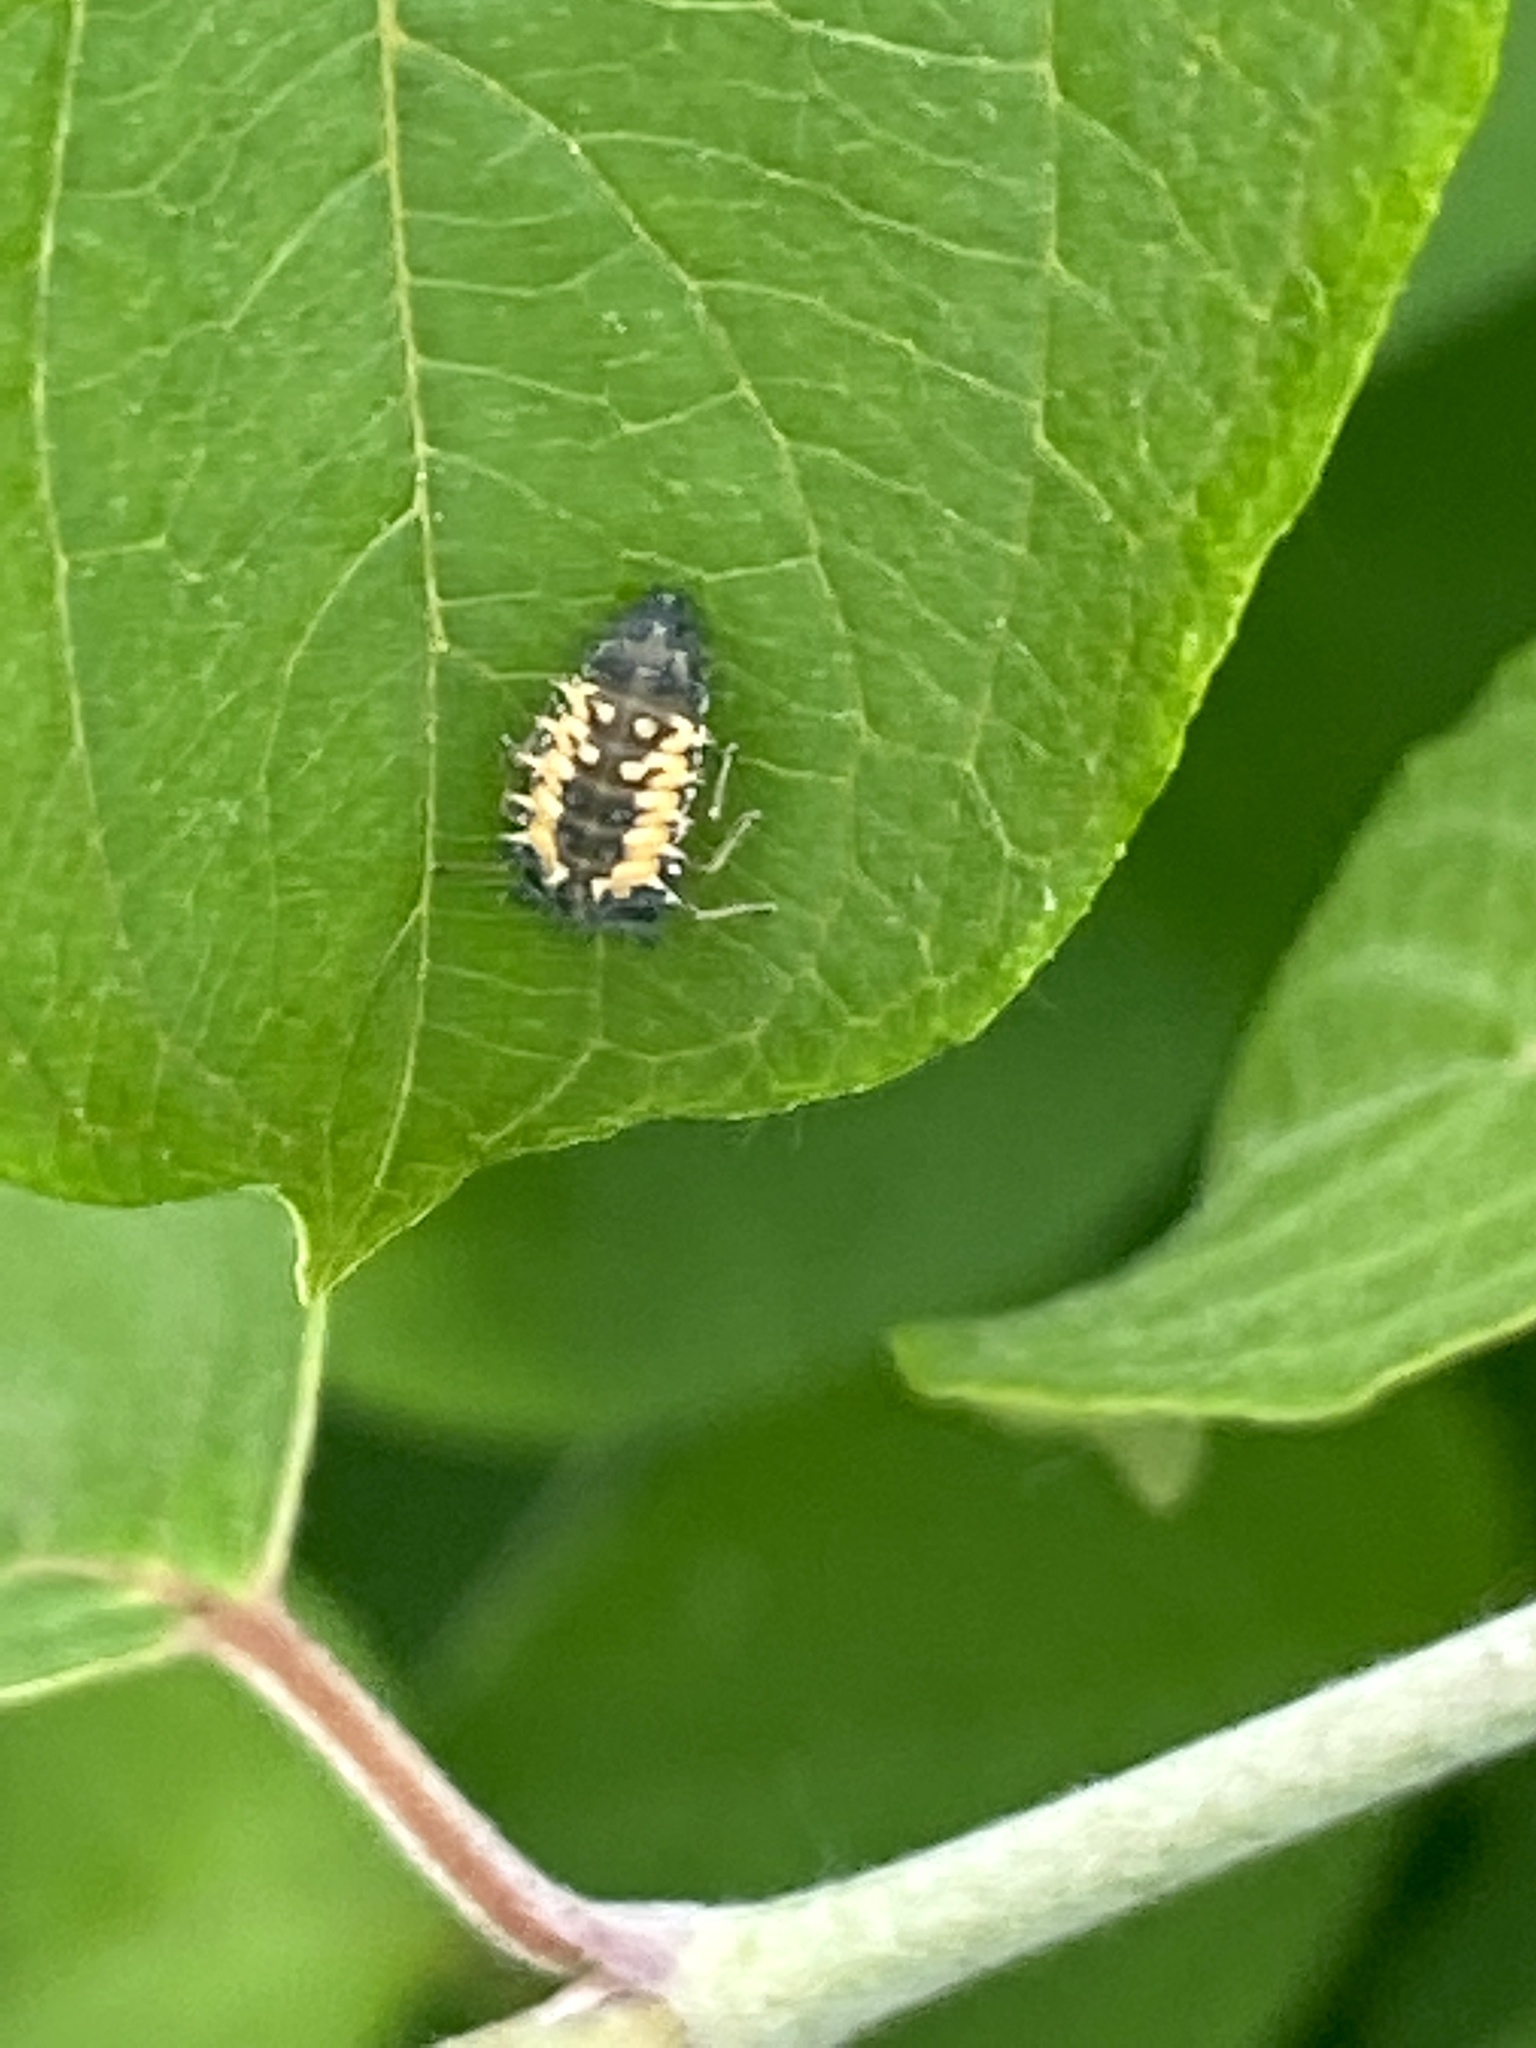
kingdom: Animalia
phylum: Arthropoda
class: Insecta
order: Coleoptera
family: Coccinellidae
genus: Harmonia
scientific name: Harmonia axyridis
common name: Harlequin ladybird
